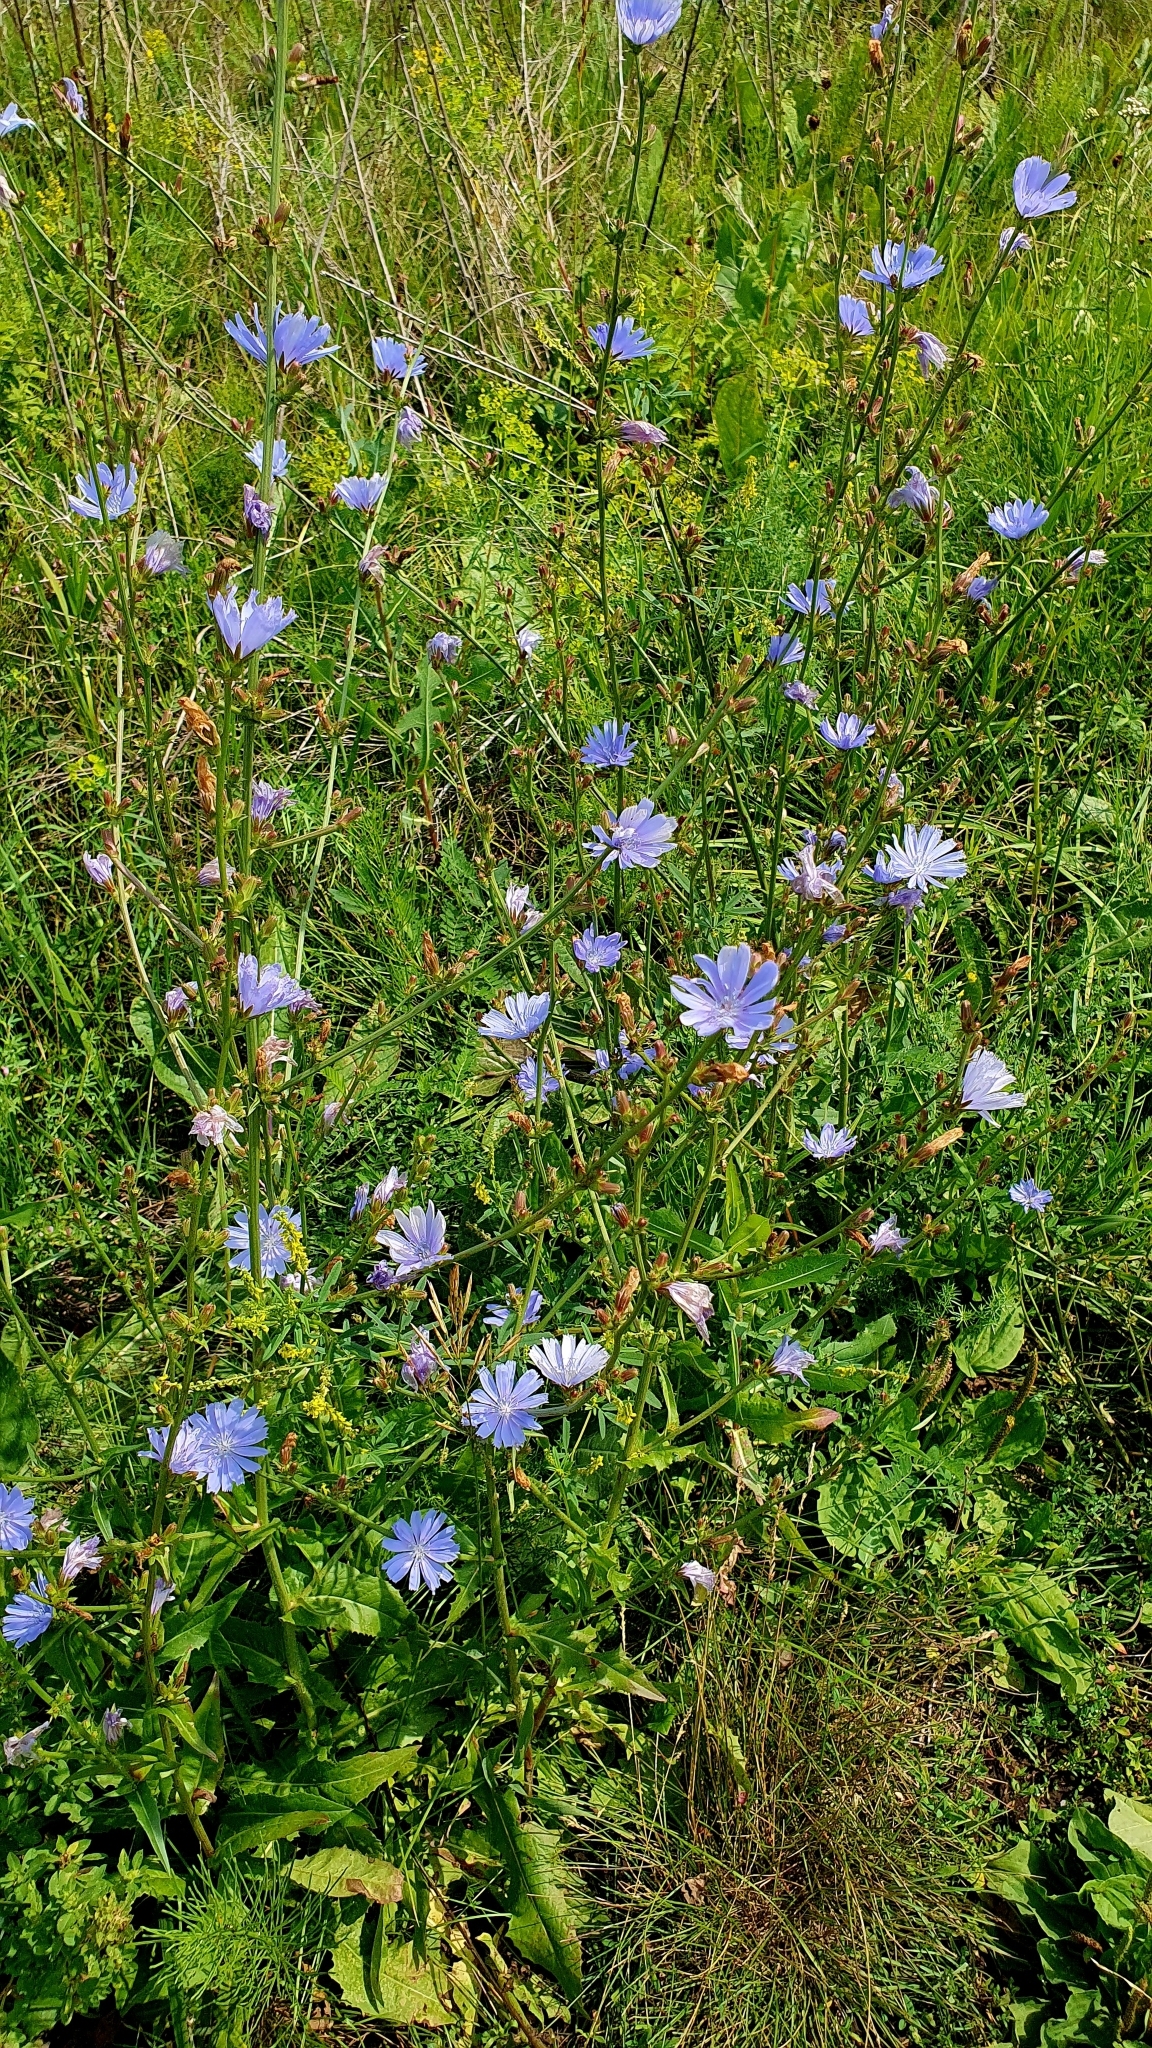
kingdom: Plantae
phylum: Tracheophyta
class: Magnoliopsida
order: Asterales
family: Asteraceae
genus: Cichorium
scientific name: Cichorium intybus
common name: Chicory
